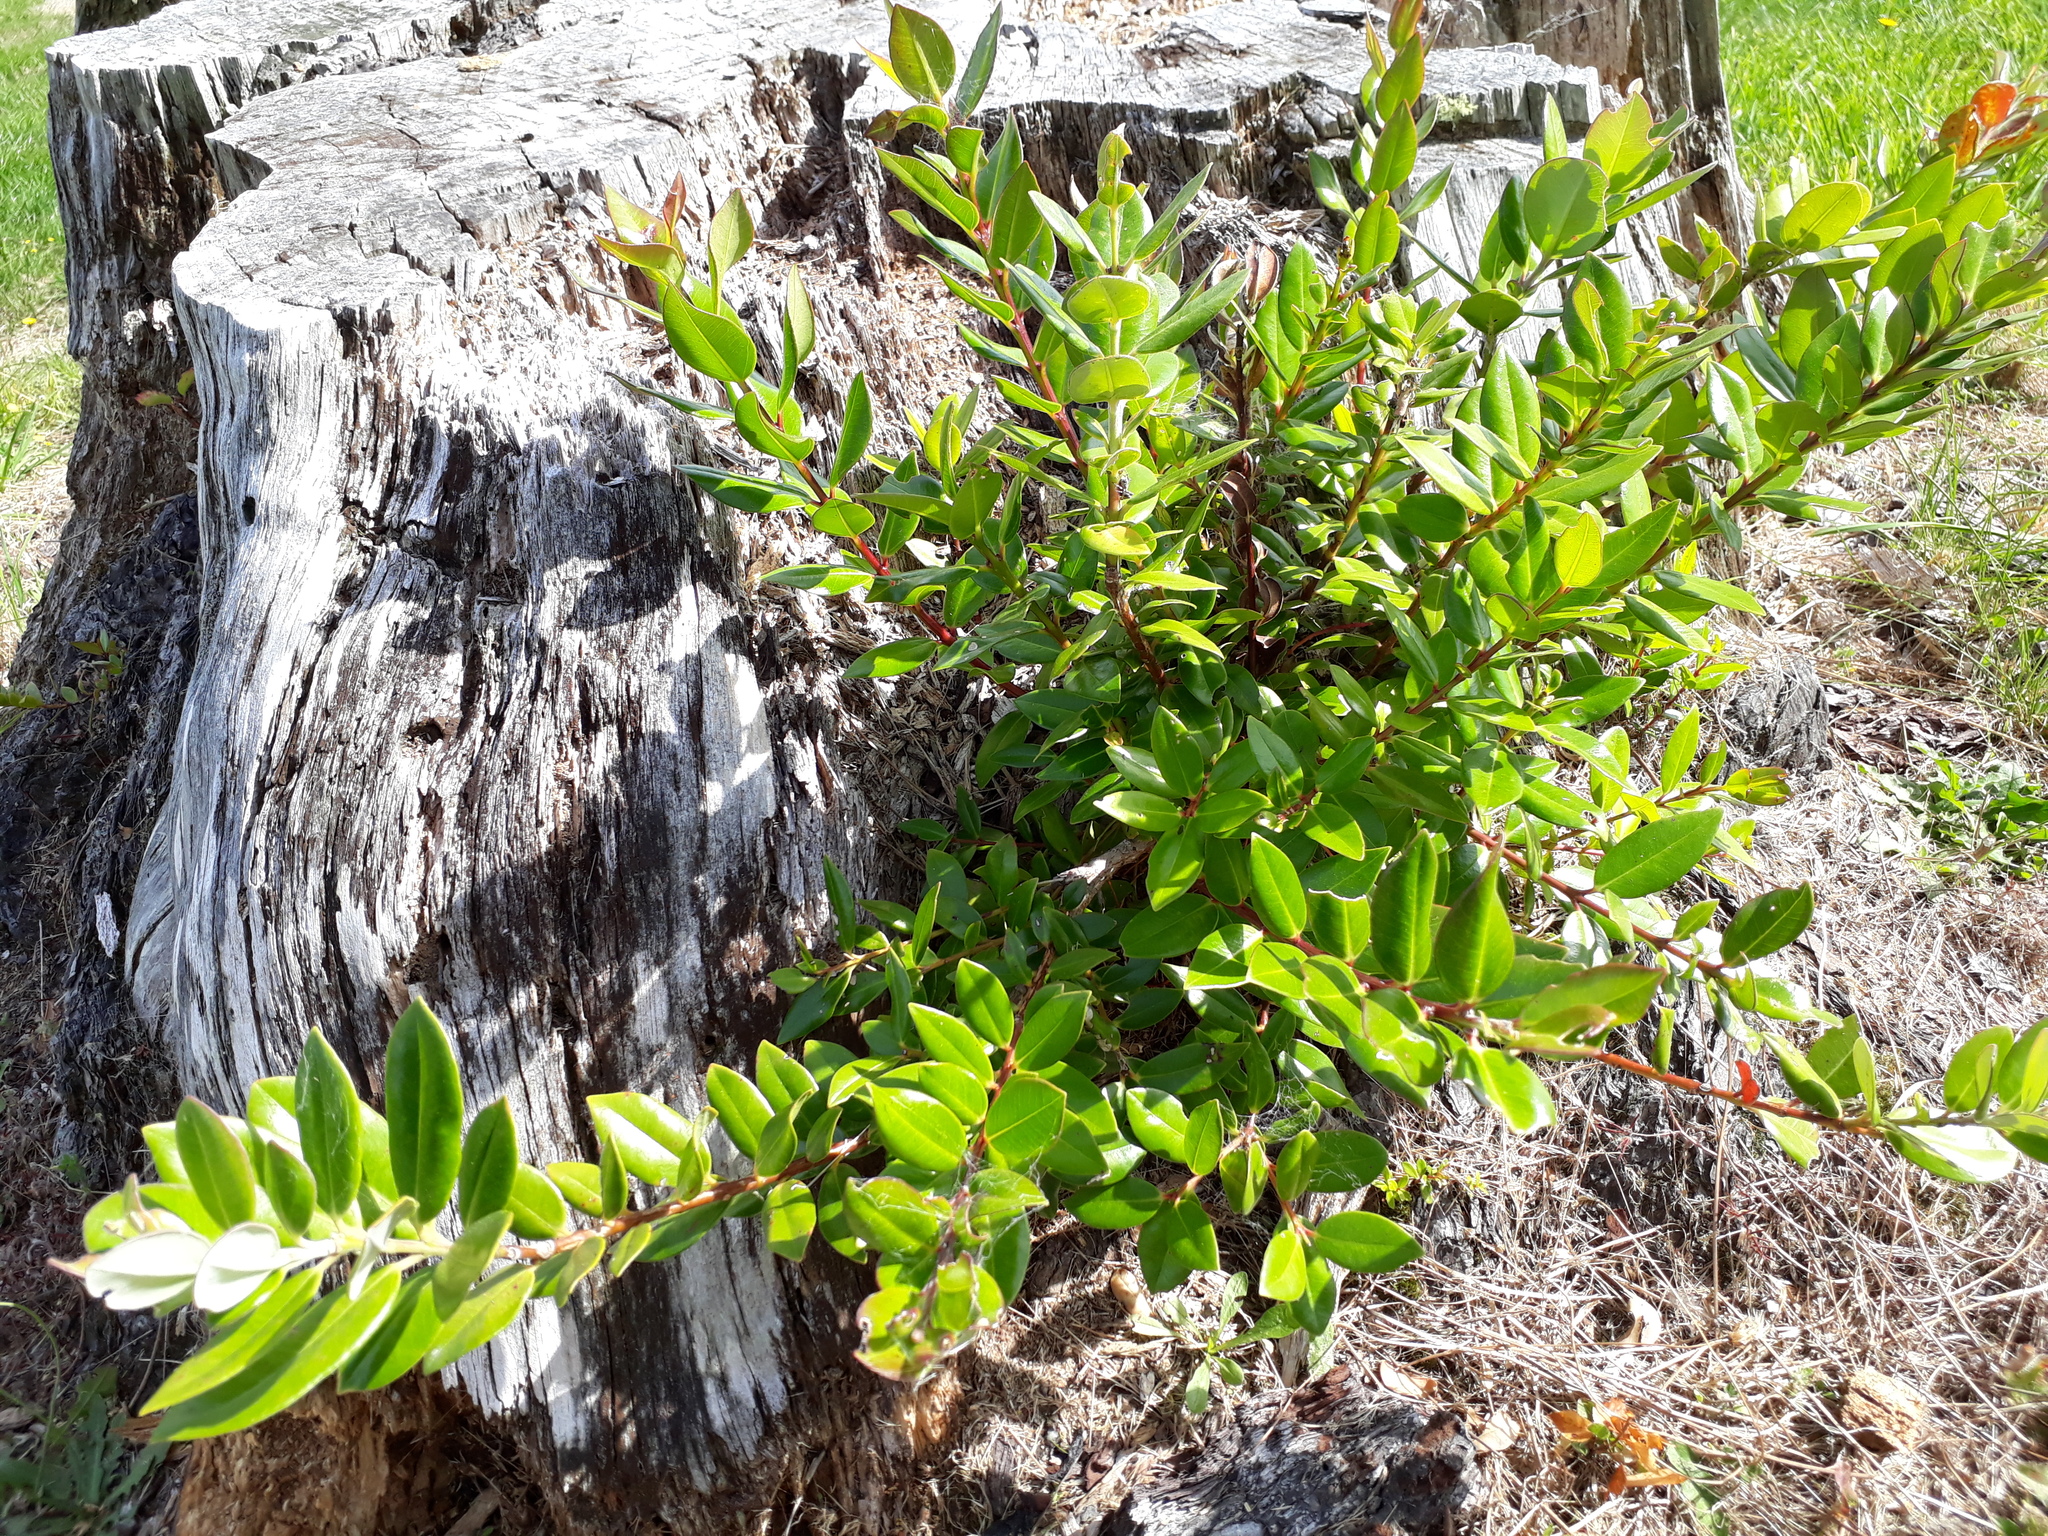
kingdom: Plantae
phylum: Tracheophyta
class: Magnoliopsida
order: Myrtales
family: Myrtaceae
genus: Metrosideros
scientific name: Metrosideros excelsa
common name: New zealand christmastree
